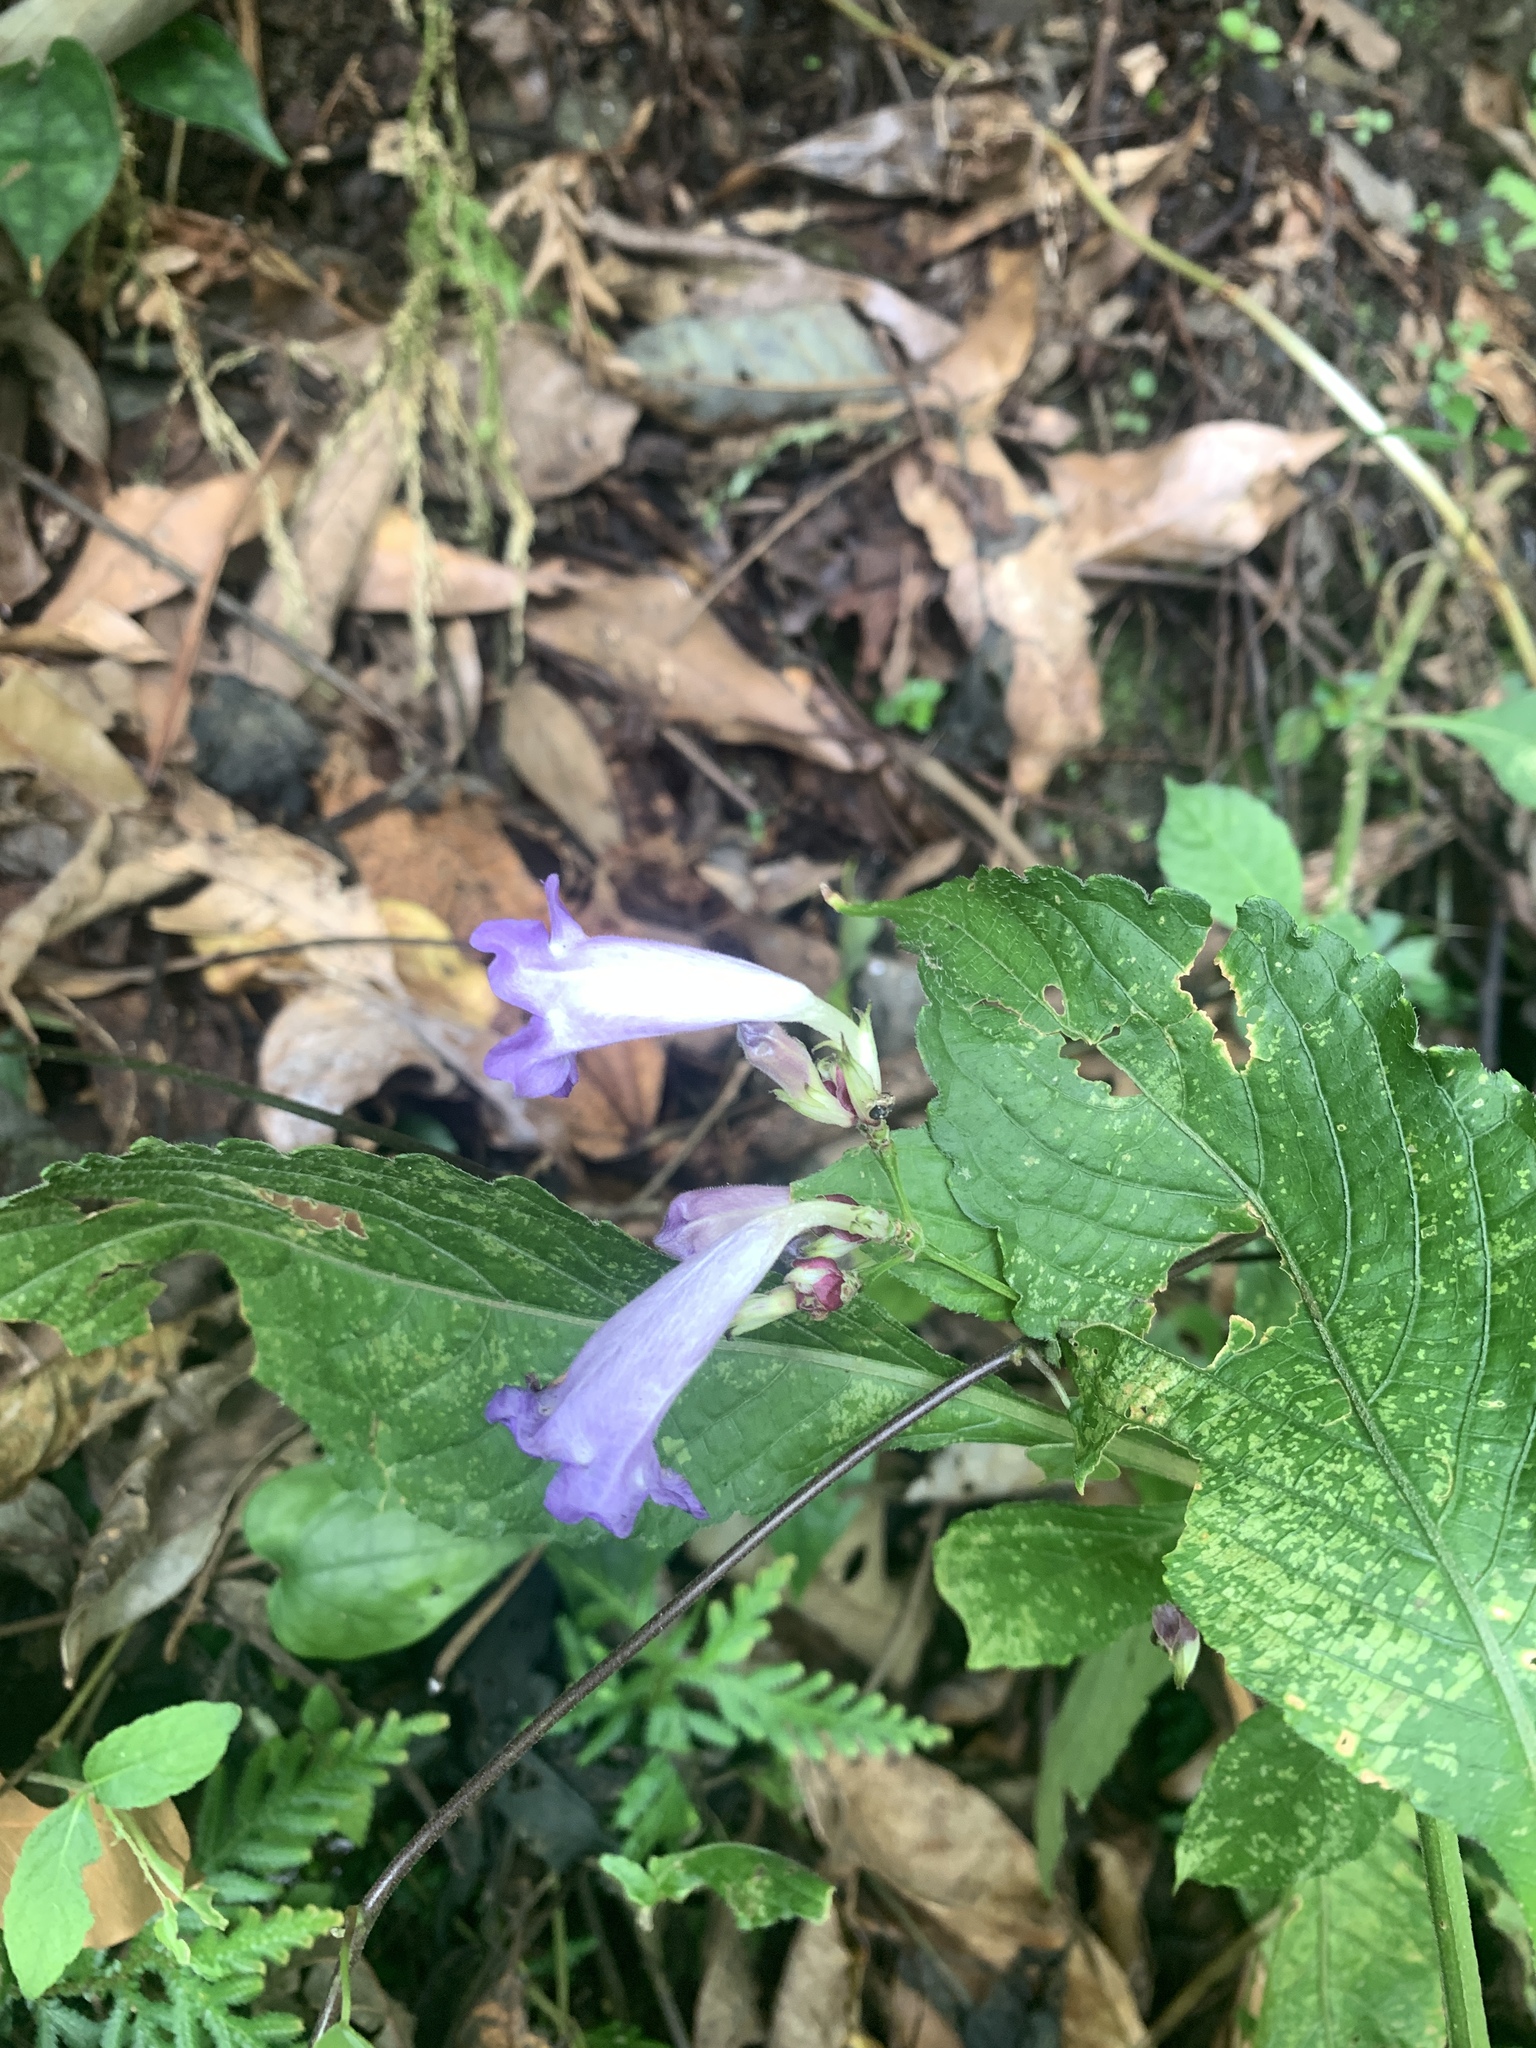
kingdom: Plantae
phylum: Tracheophyta
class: Magnoliopsida
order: Lamiales
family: Acanthaceae
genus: Strobilanthes
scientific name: Strobilanthes formosana
